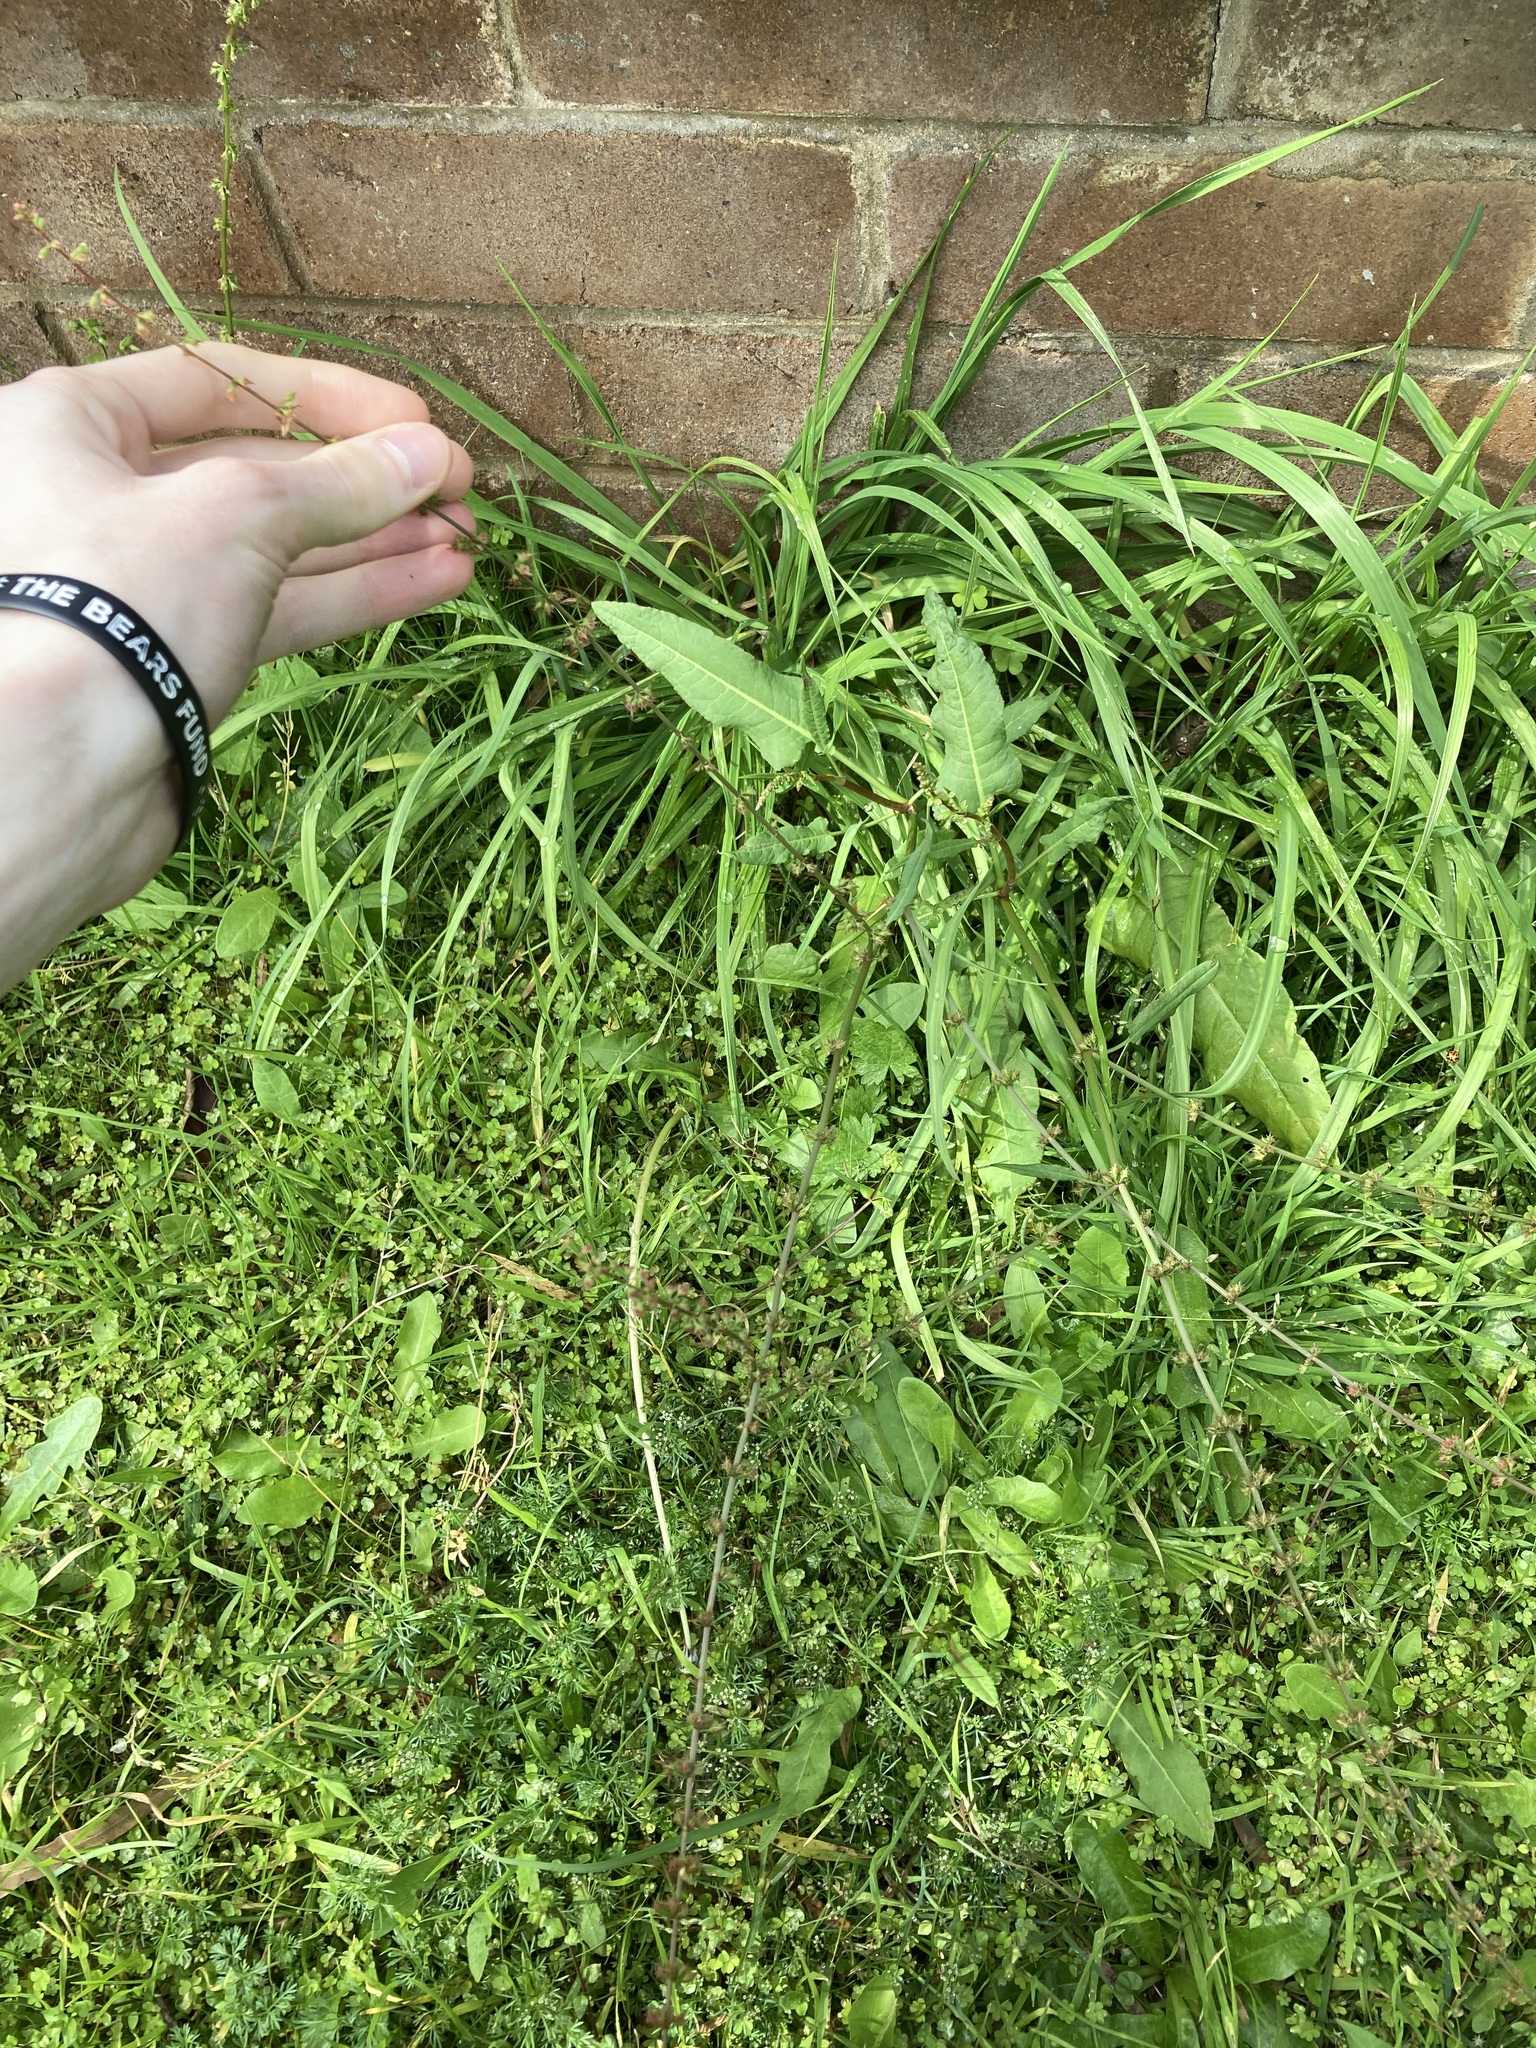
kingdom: Plantae
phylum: Tracheophyta
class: Magnoliopsida
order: Caryophyllales
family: Polygonaceae
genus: Rumex
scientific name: Rumex brownii
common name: Hooked dock
